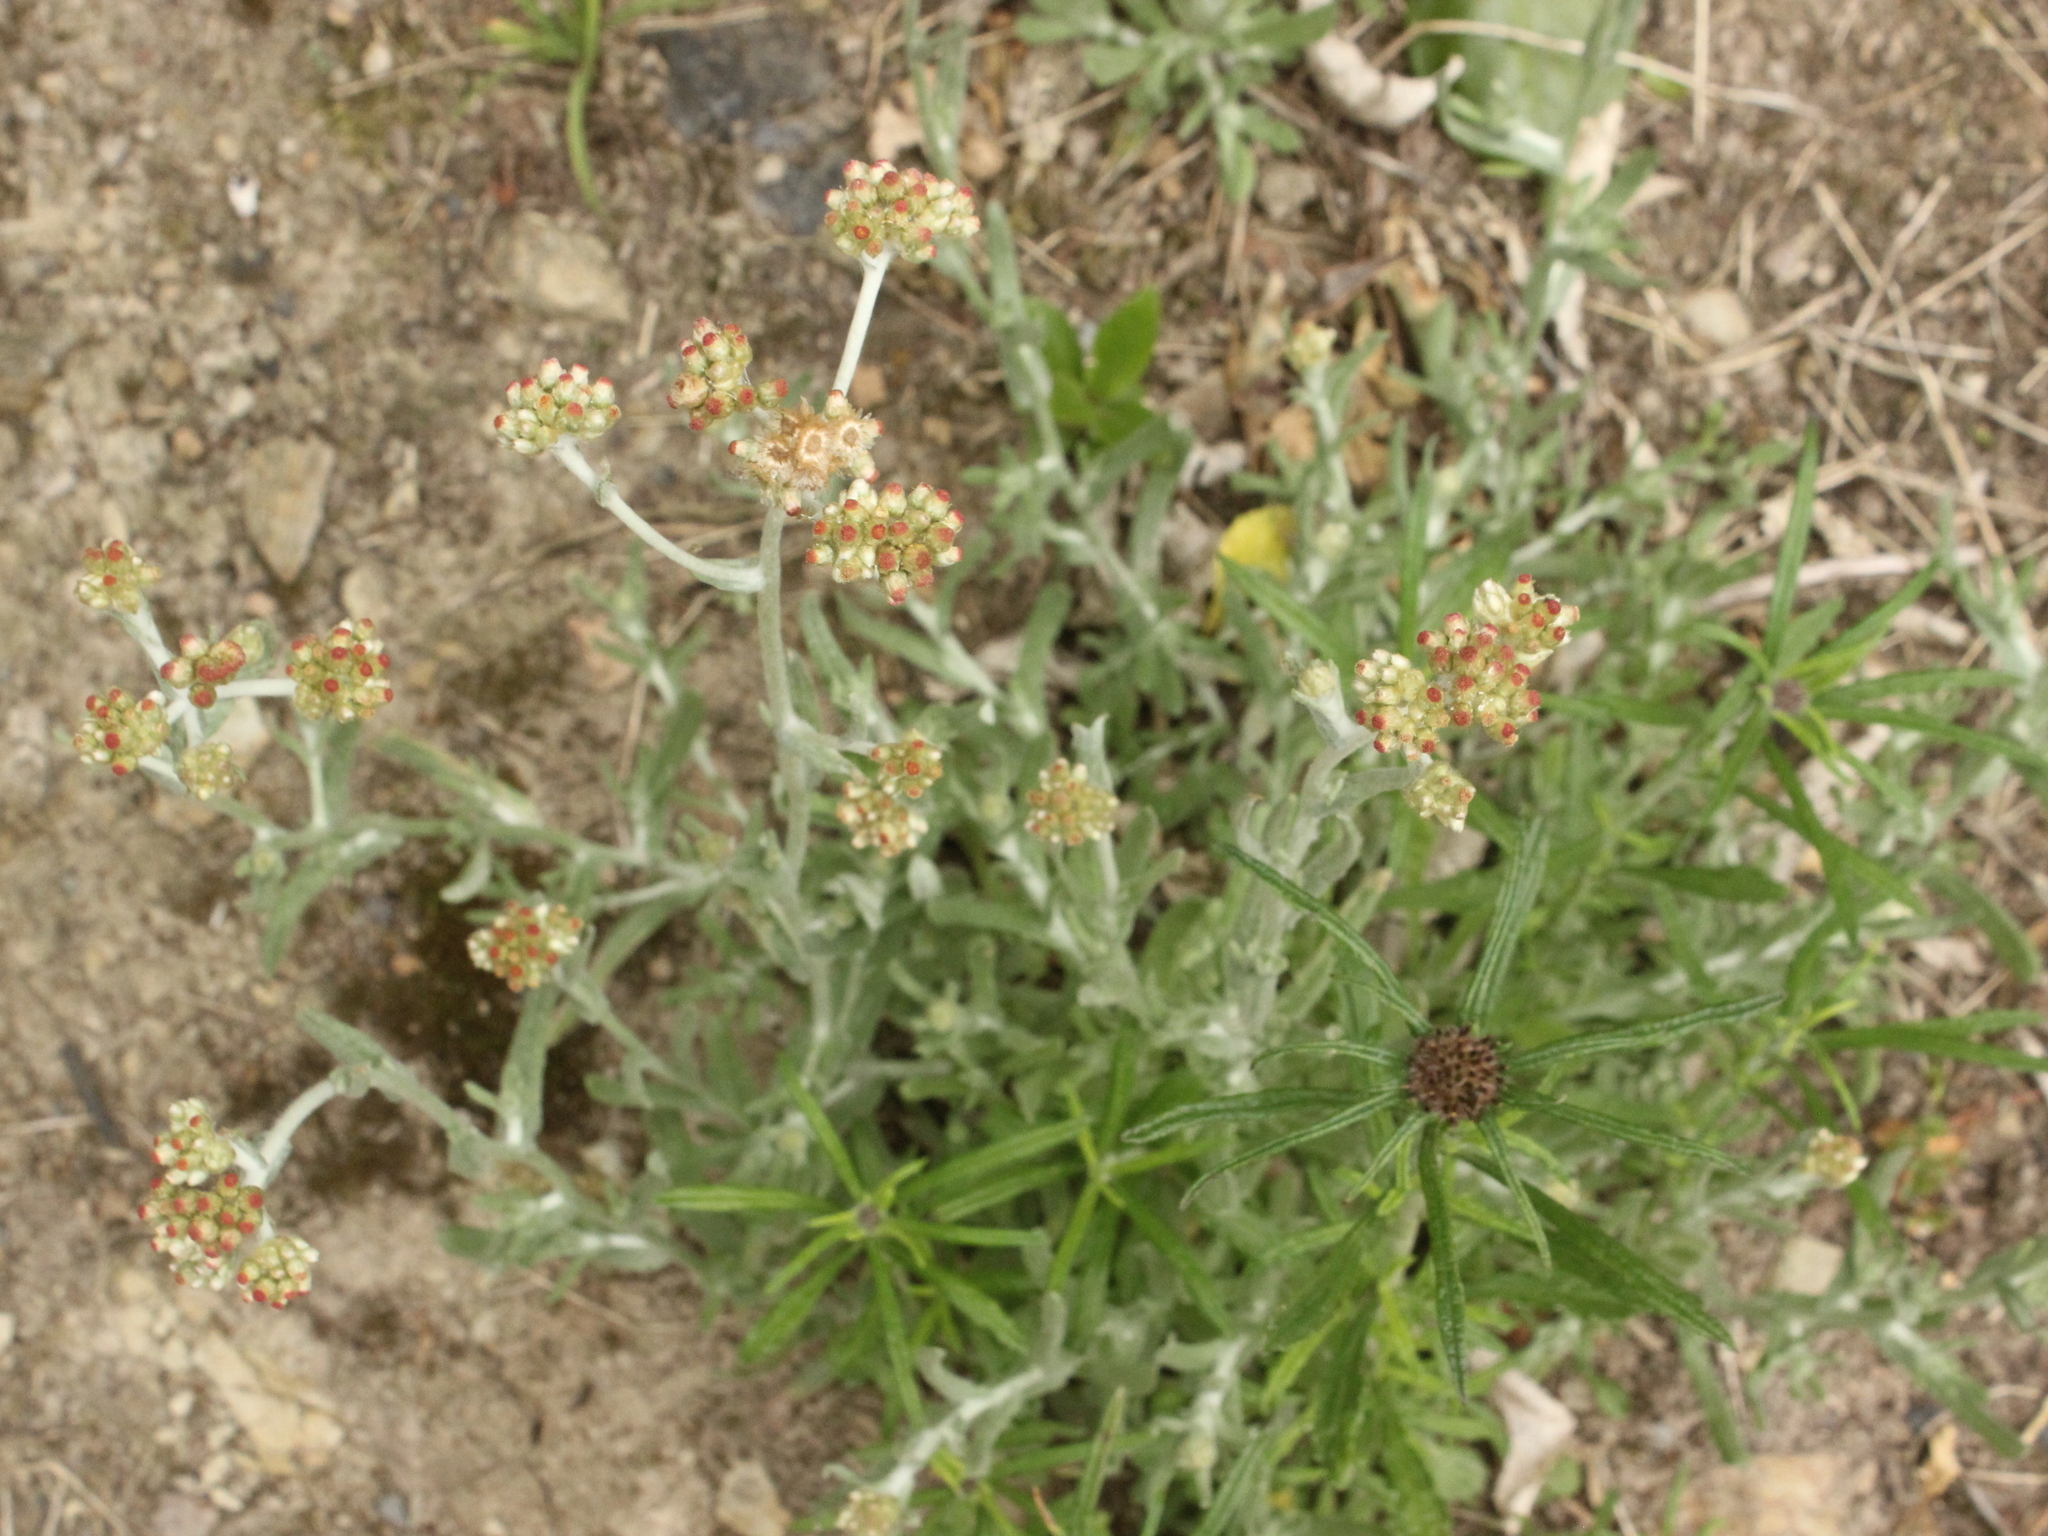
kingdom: Plantae
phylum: Tracheophyta
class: Magnoliopsida
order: Asterales
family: Asteraceae
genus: Helichrysum
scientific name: Helichrysum luteoalbum
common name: Daisy
